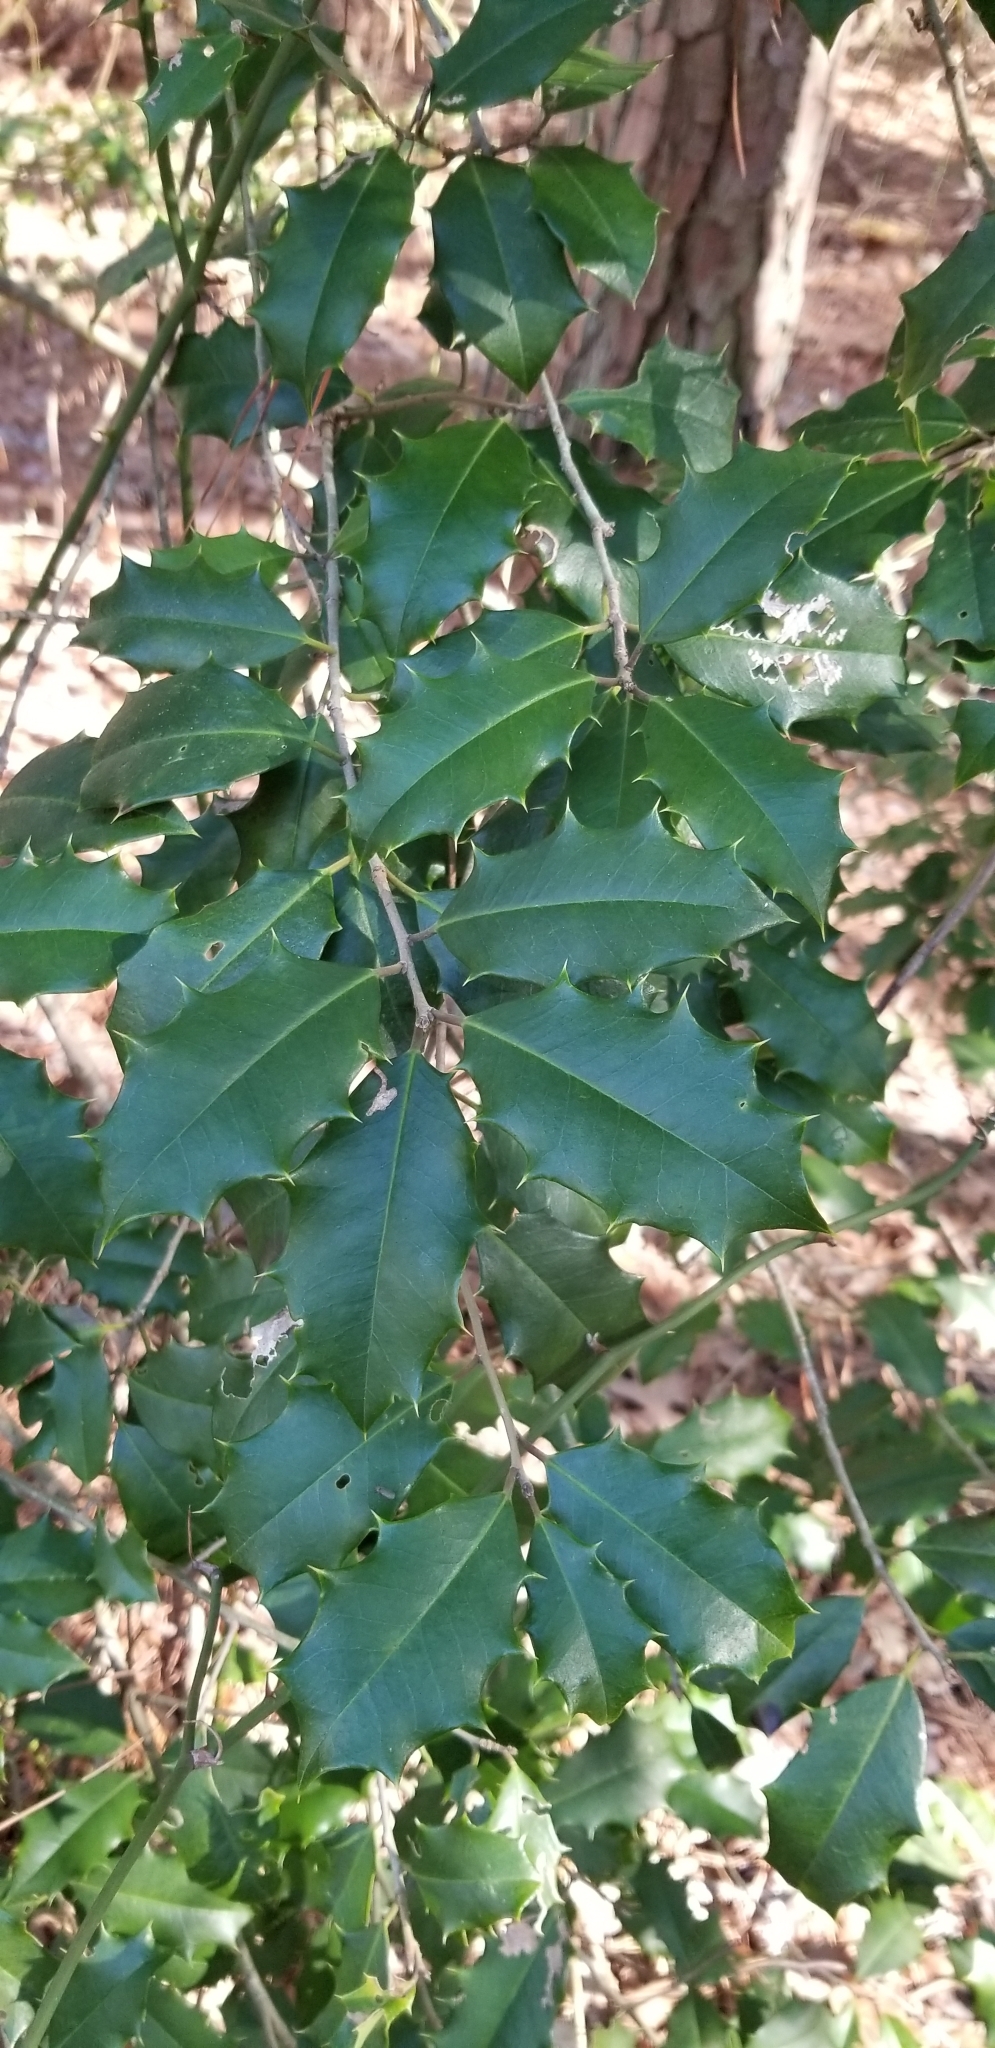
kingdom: Plantae
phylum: Tracheophyta
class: Magnoliopsida
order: Aquifoliales
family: Aquifoliaceae
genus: Ilex
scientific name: Ilex opaca
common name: American holly
